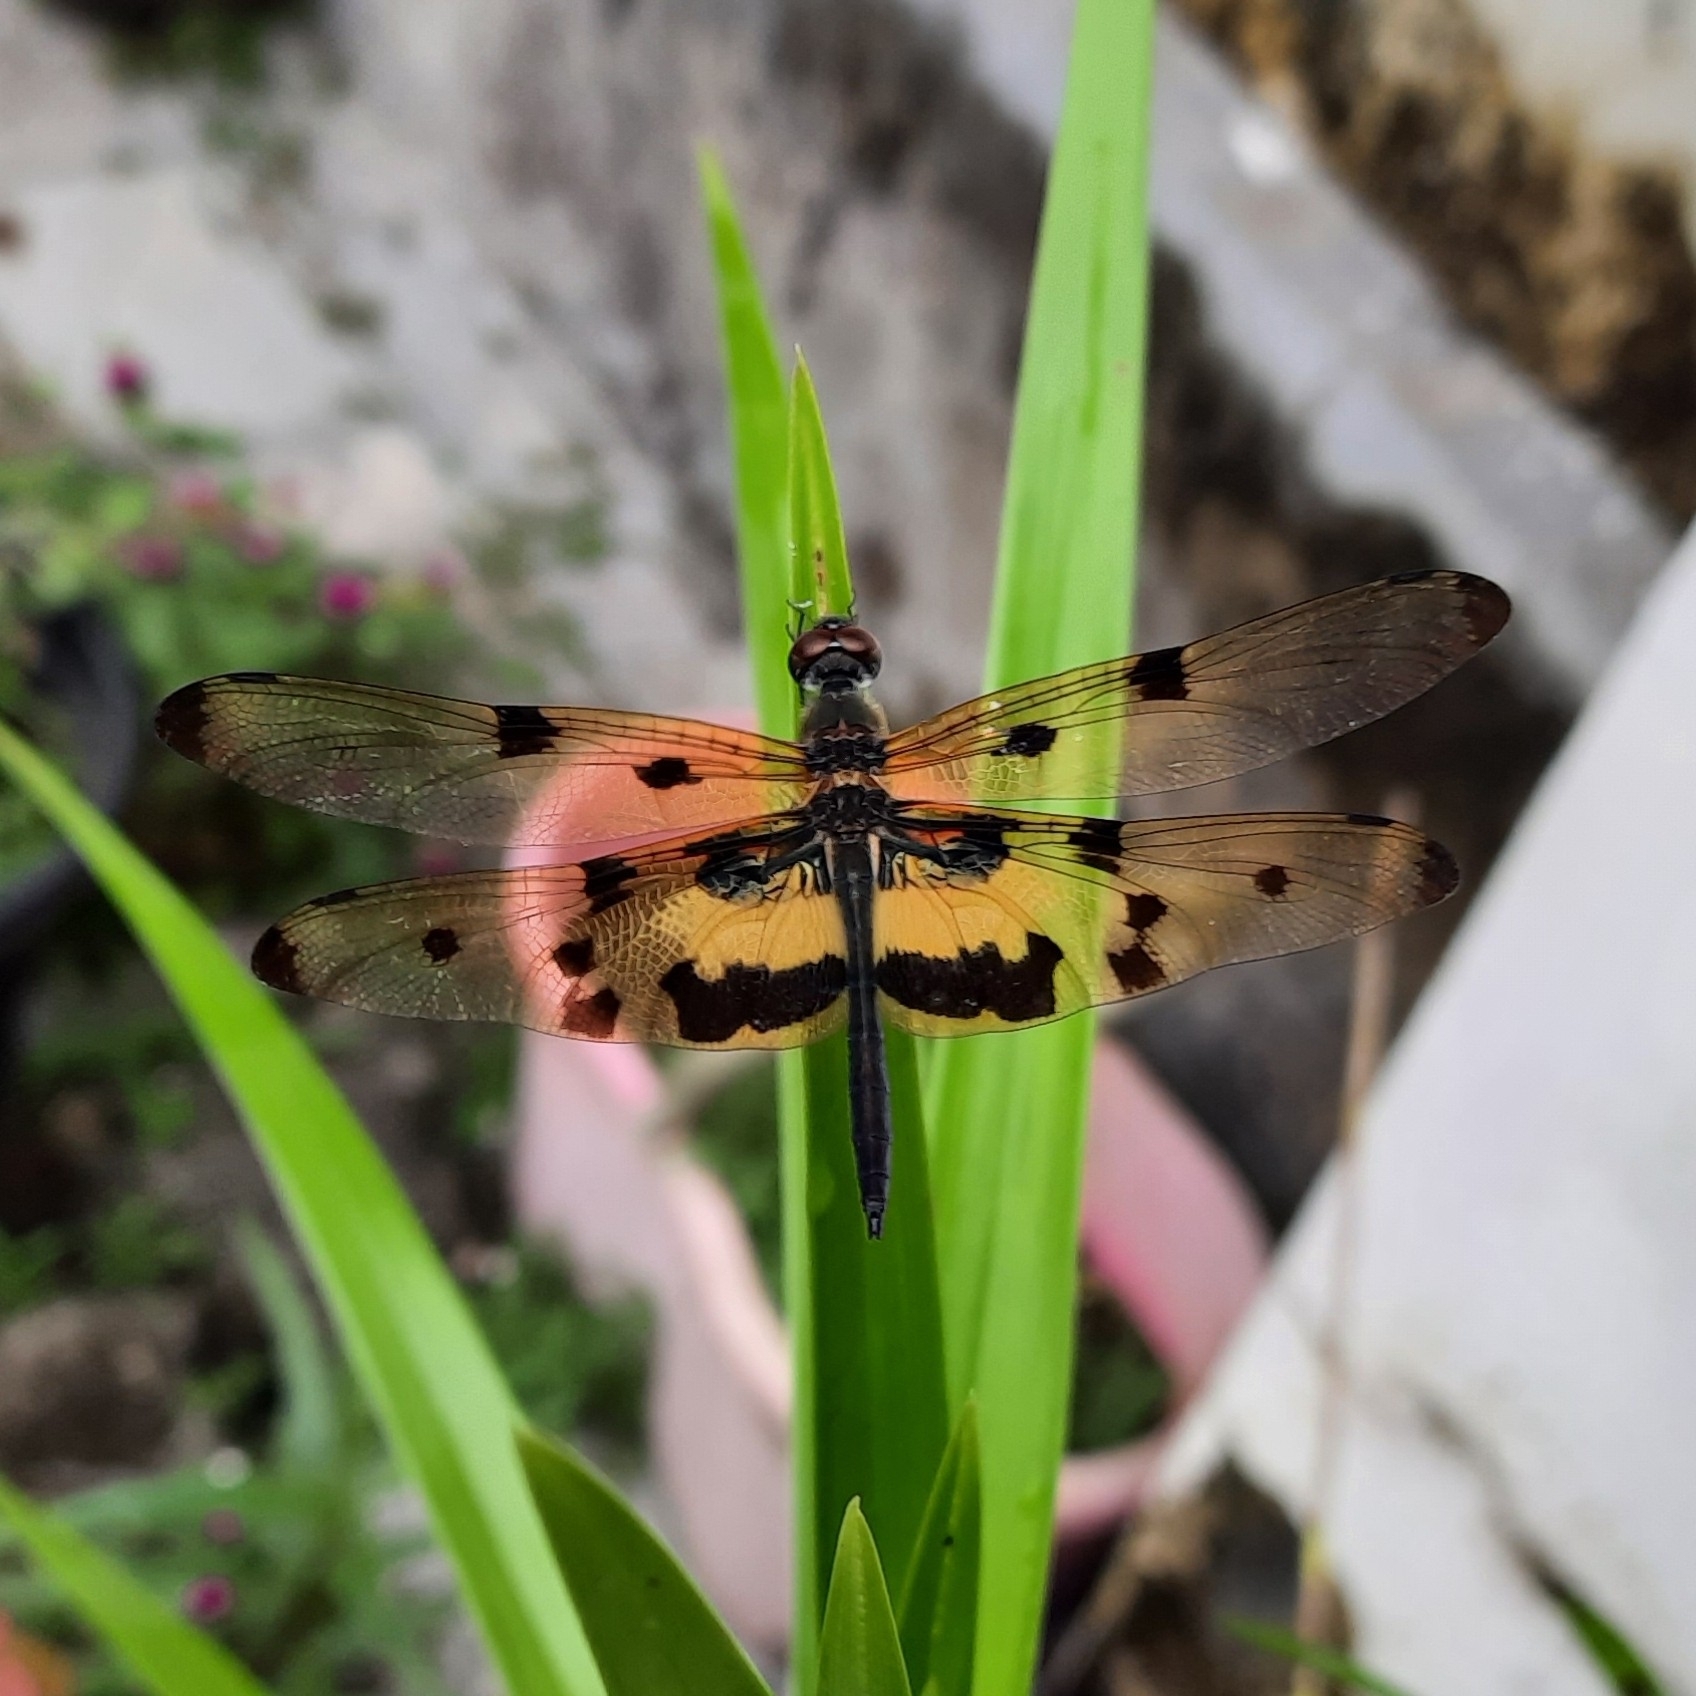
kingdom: Animalia
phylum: Arthropoda
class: Insecta
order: Odonata
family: Libellulidae
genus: Rhyothemis
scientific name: Rhyothemis variegata
